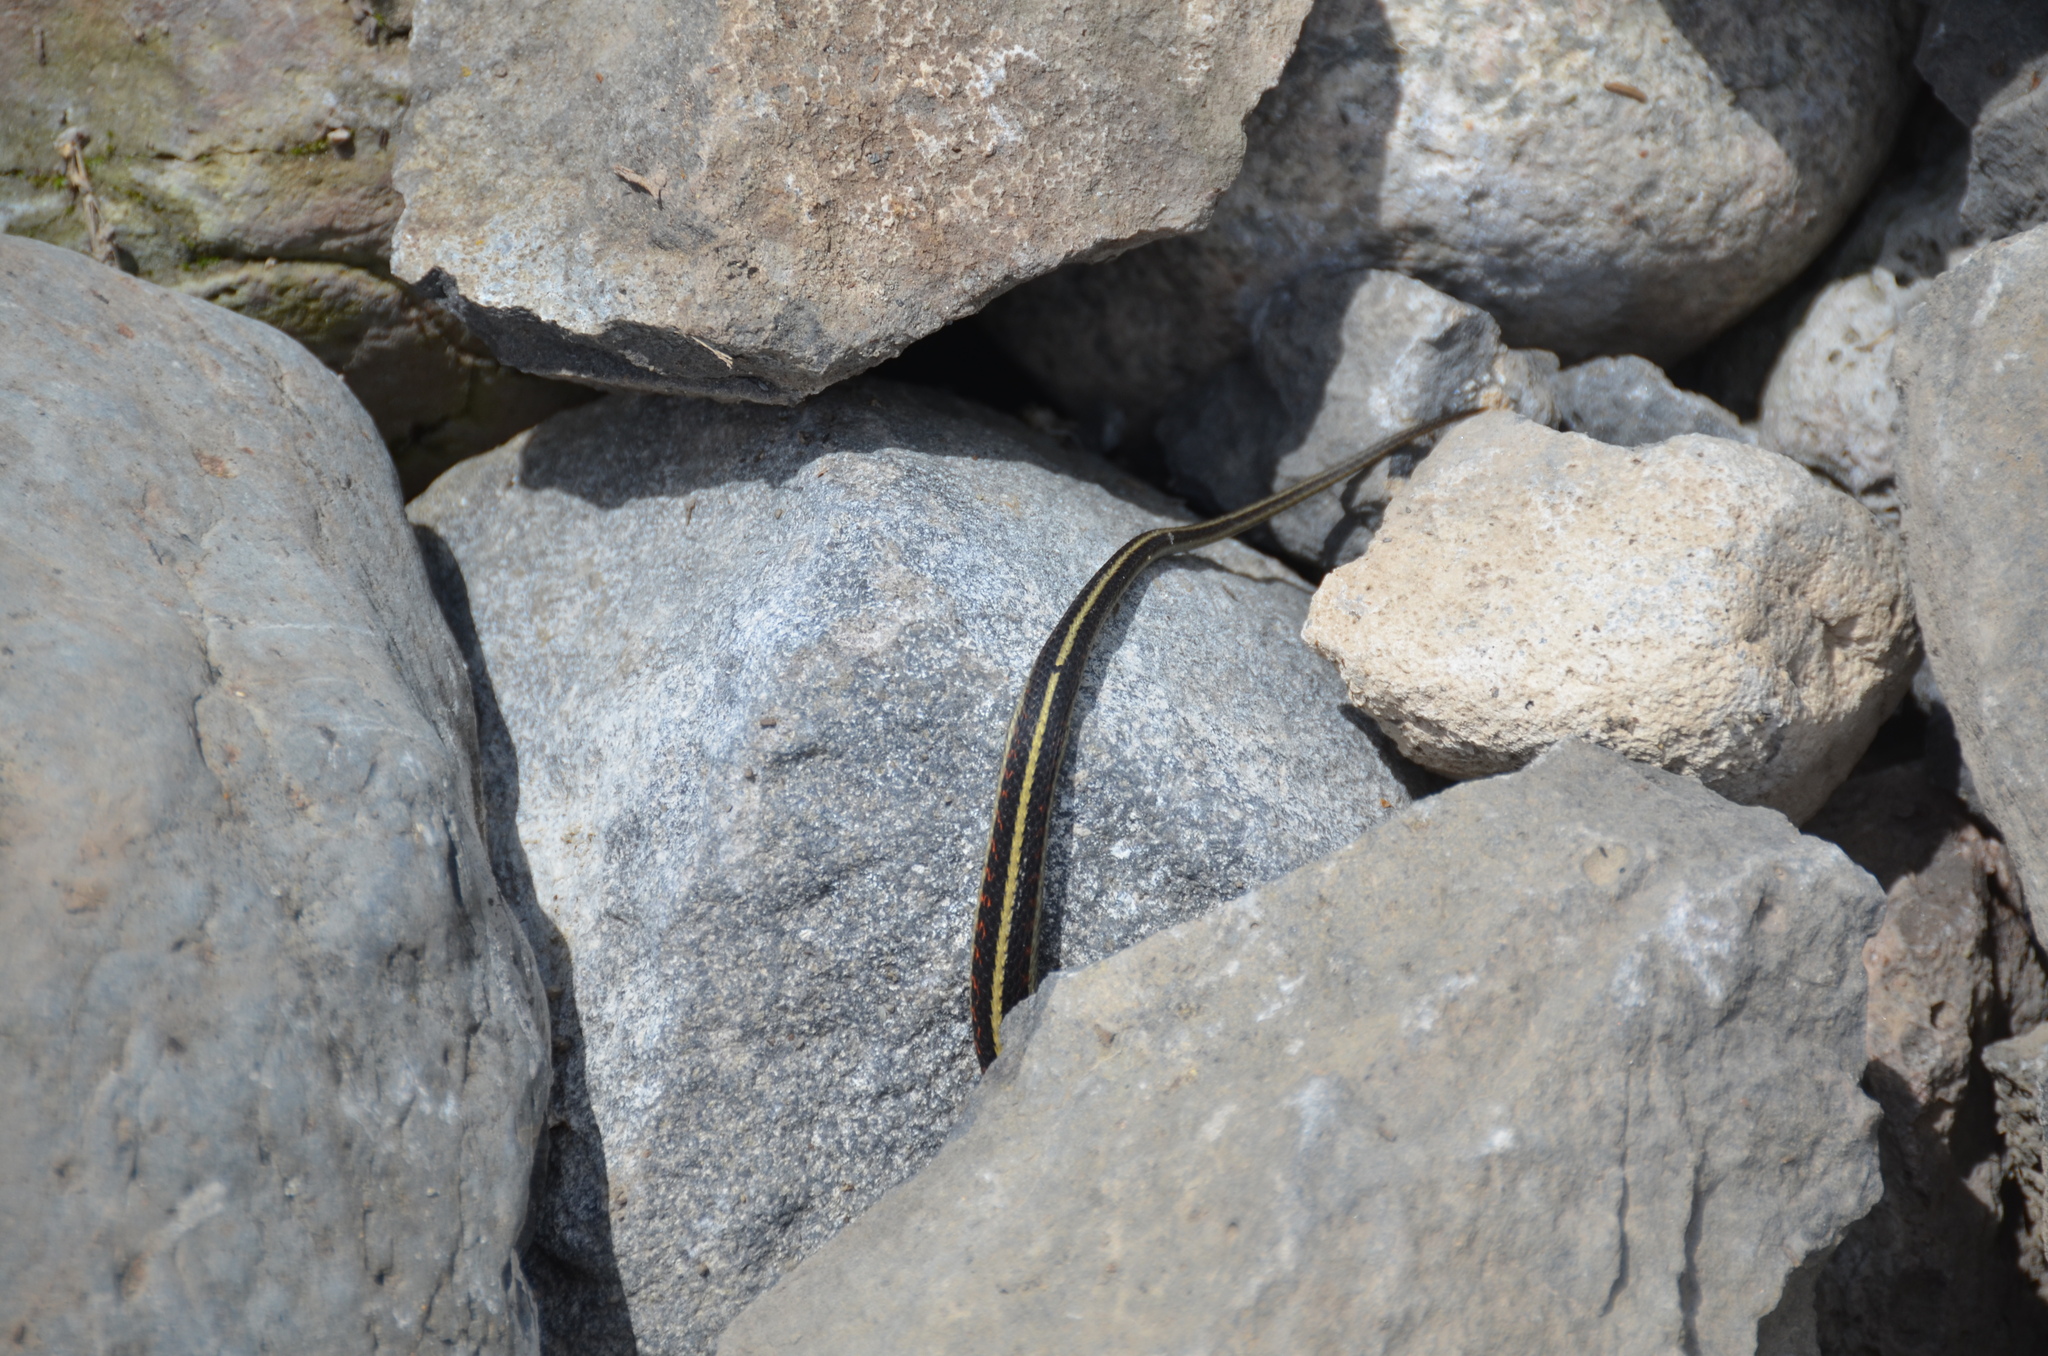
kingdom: Animalia
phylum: Chordata
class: Squamata
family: Colubridae
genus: Thamnophis
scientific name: Thamnophis sirtalis
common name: Common garter snake
